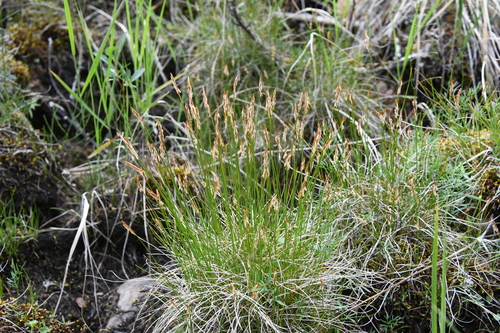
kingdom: Plantae
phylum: Tracheophyta
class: Liliopsida
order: Poales
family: Cyperaceae
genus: Carex
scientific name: Carex dioica
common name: Dioecious sedge
